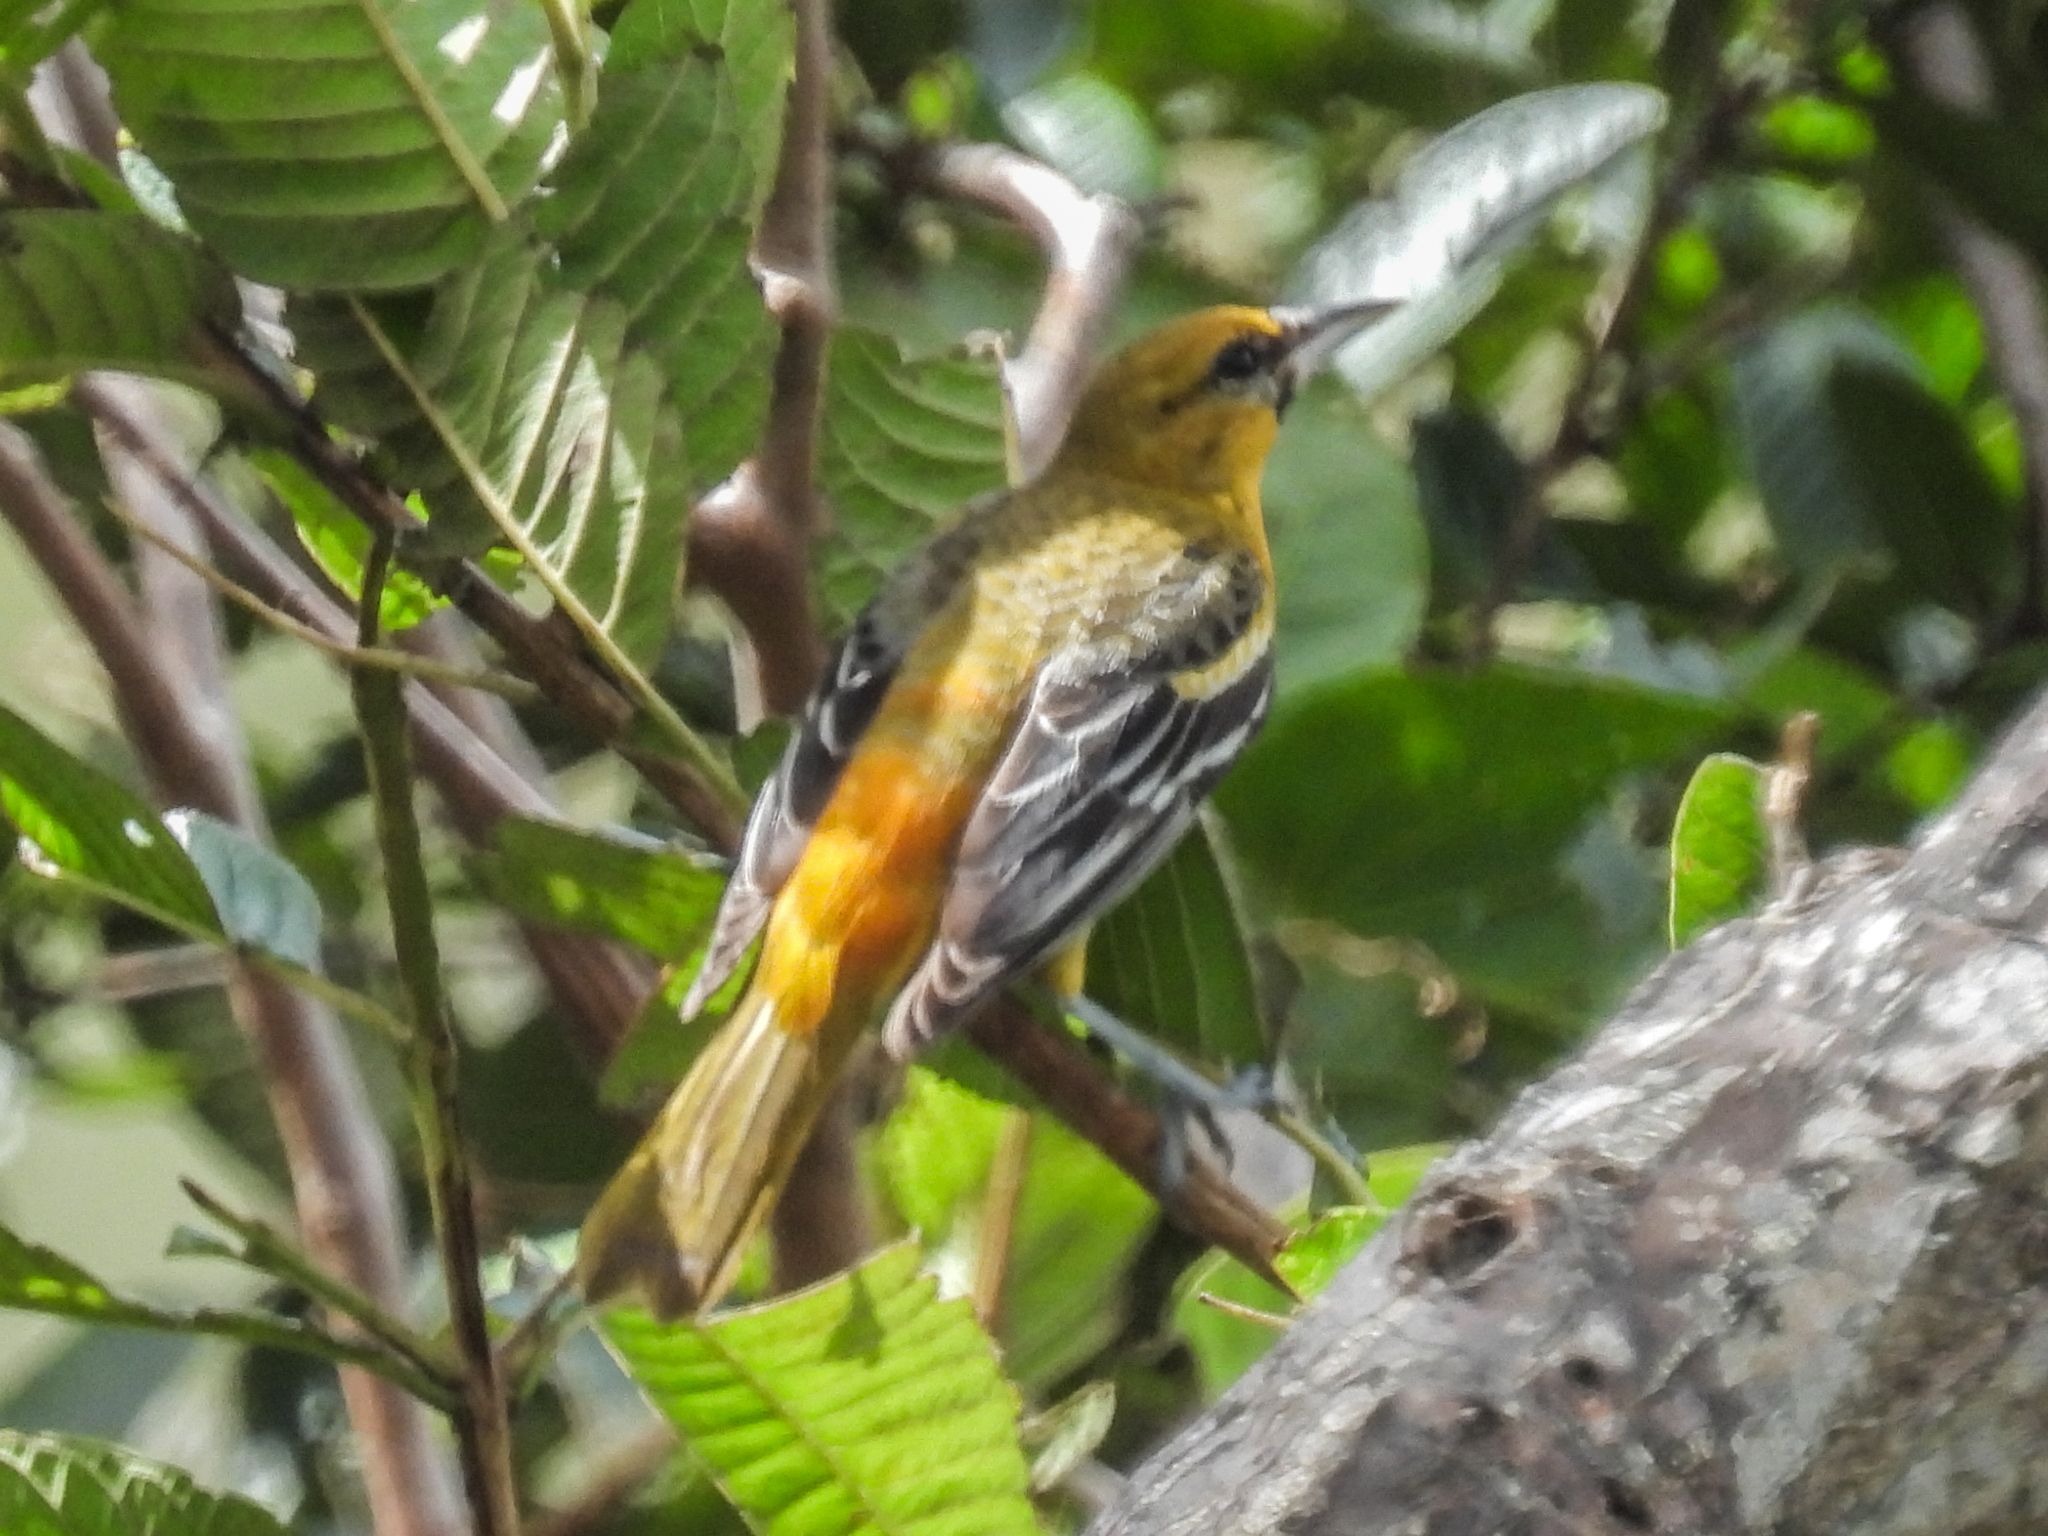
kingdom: Animalia
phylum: Chordata
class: Aves
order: Passeriformes
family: Icteridae
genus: Icterus
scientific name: Icterus galbula
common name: Baltimore oriole
